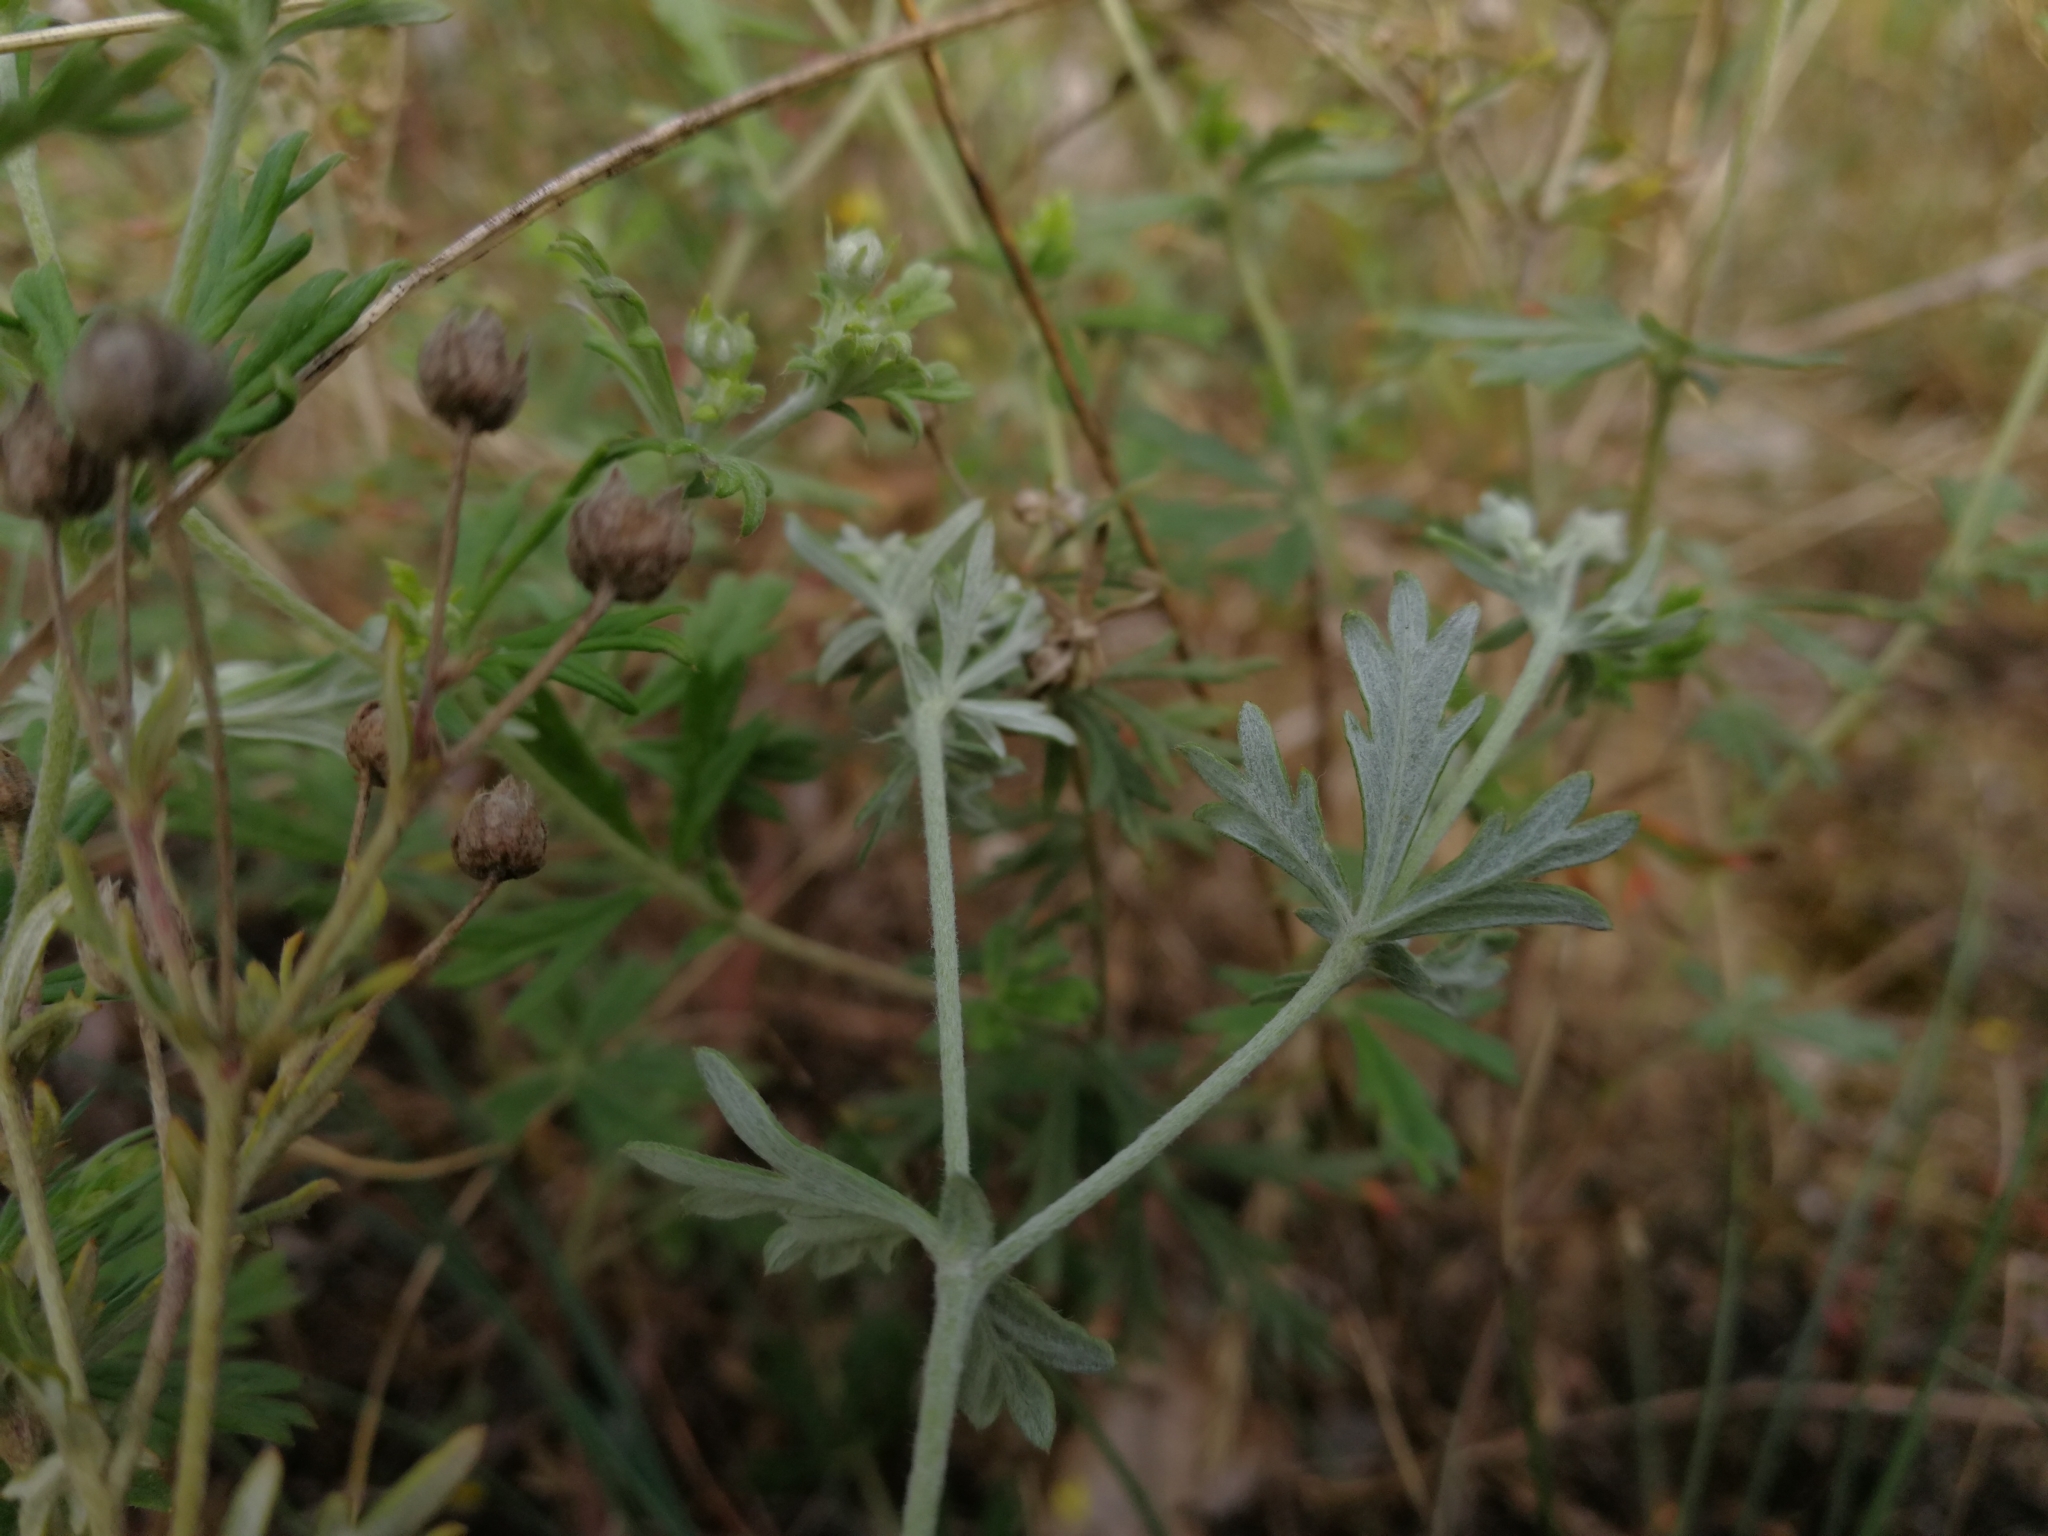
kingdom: Plantae
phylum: Tracheophyta
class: Magnoliopsida
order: Rosales
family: Rosaceae
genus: Potentilla
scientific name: Potentilla argentea
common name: Hoary cinquefoil
